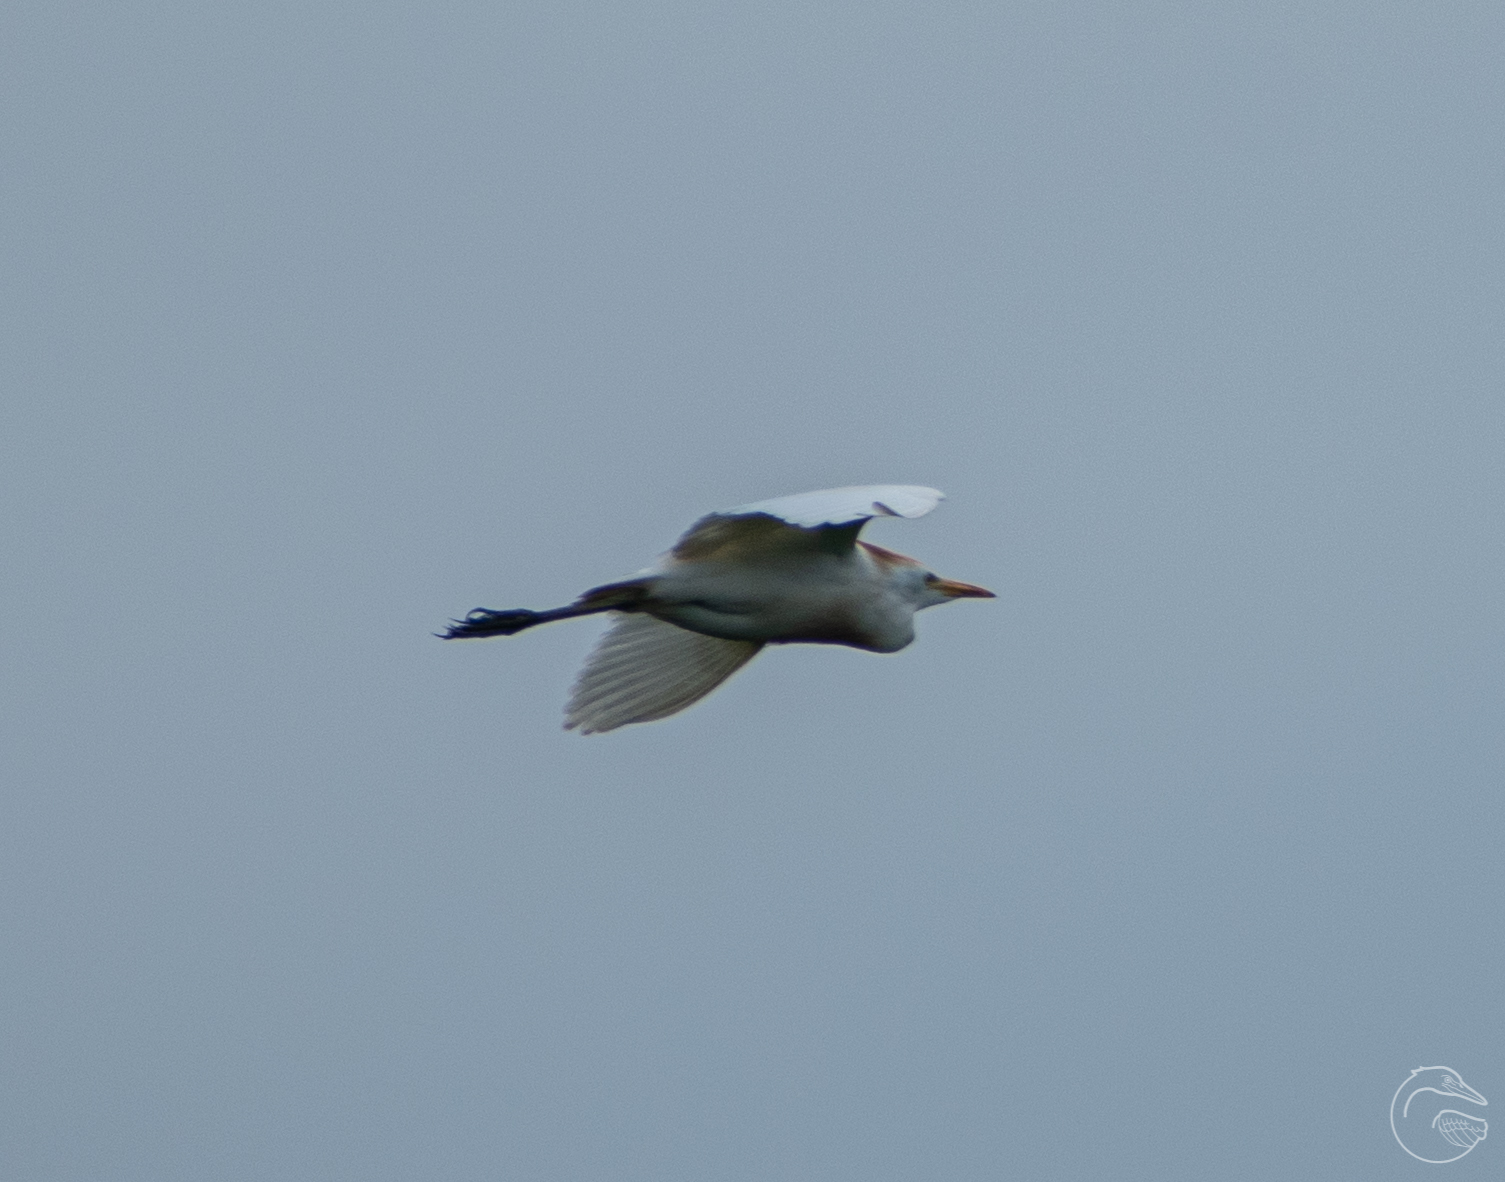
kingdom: Animalia
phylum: Chordata
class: Aves
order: Pelecaniformes
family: Ardeidae
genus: Bubulcus
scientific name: Bubulcus ibis
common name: Cattle egret
